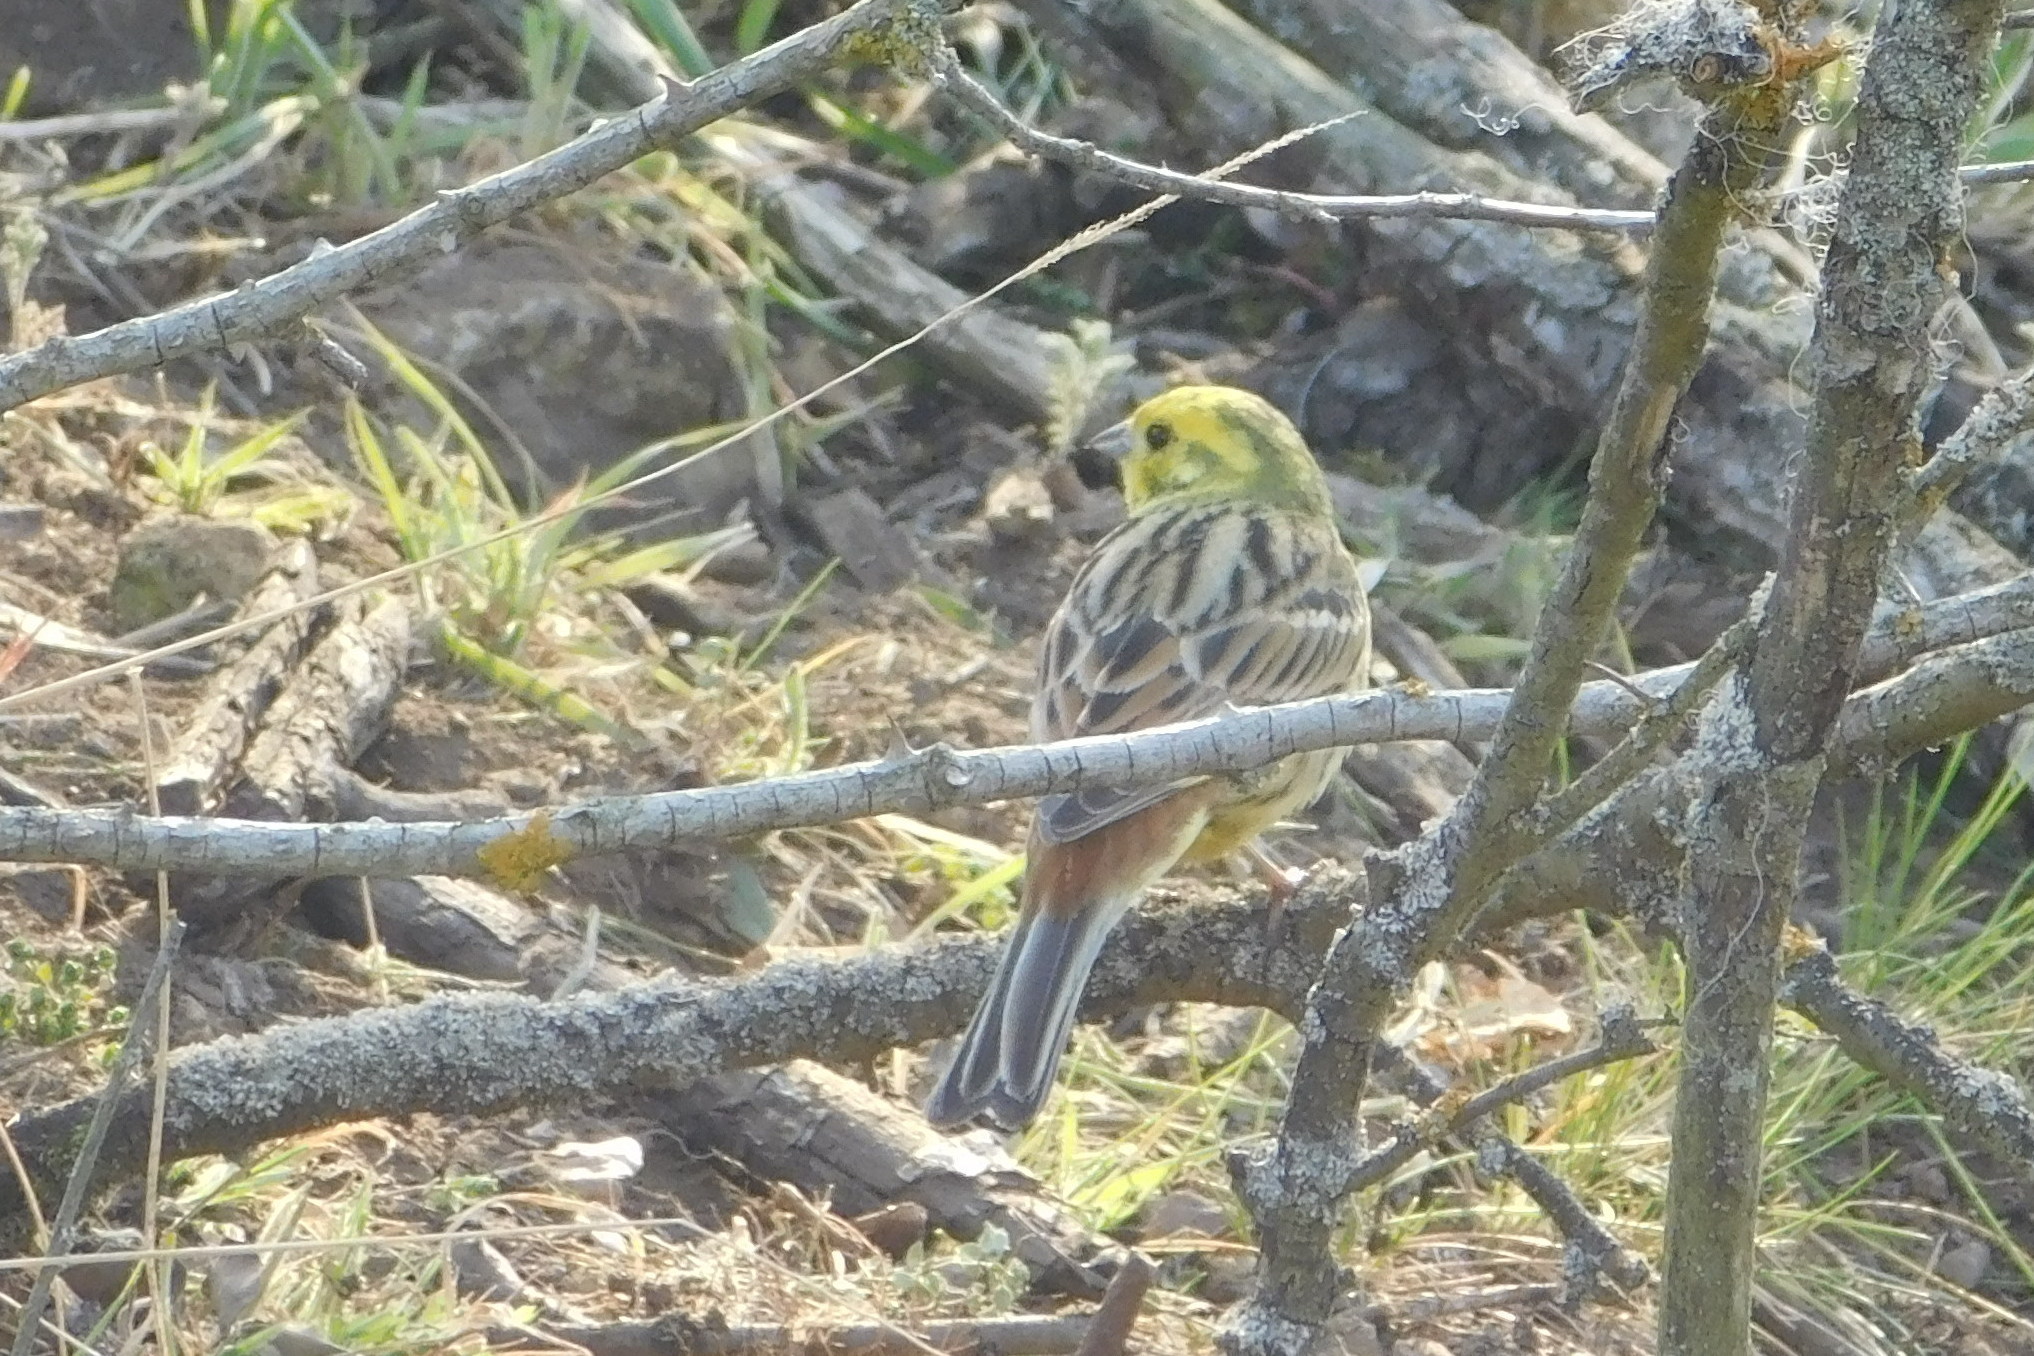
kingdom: Animalia
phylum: Chordata
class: Aves
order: Passeriformes
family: Emberizidae
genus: Emberiza
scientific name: Emberiza citrinella
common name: Yellowhammer
